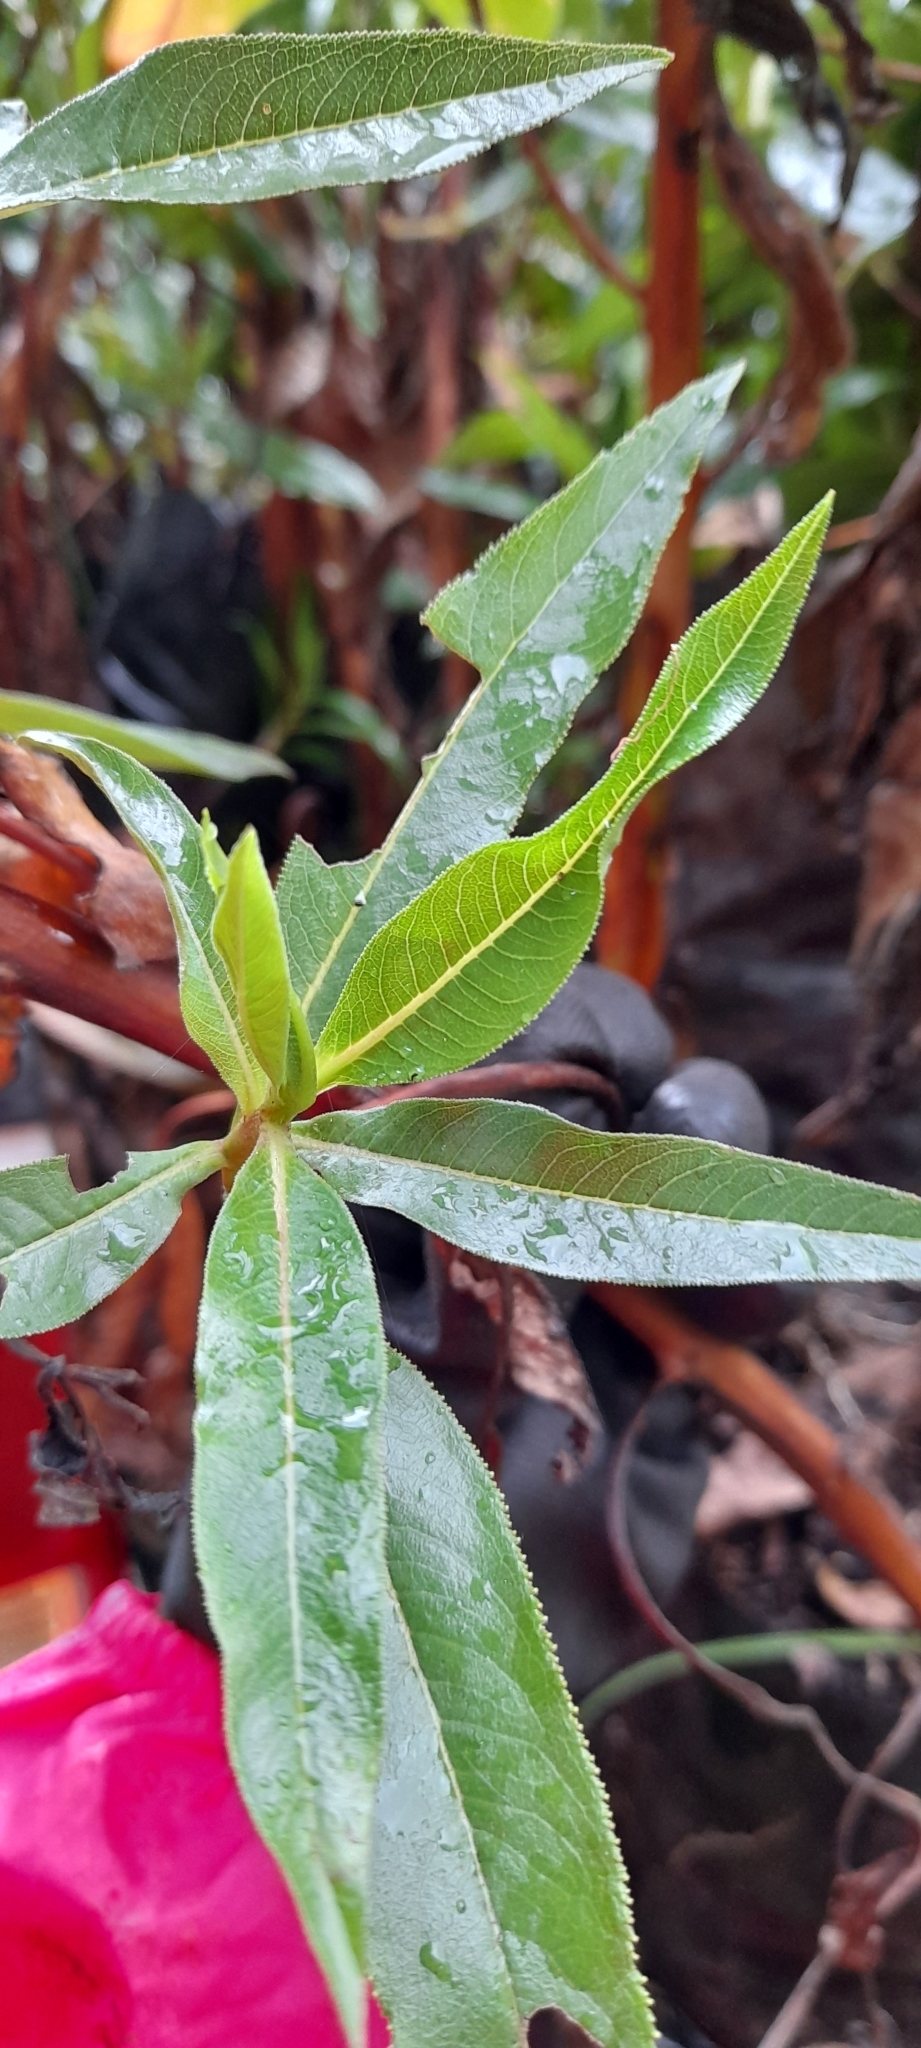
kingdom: Plantae
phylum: Tracheophyta
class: Magnoliopsida
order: Escalloniales
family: Escalloniaceae
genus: Escallonia
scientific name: Escallonia pendula
